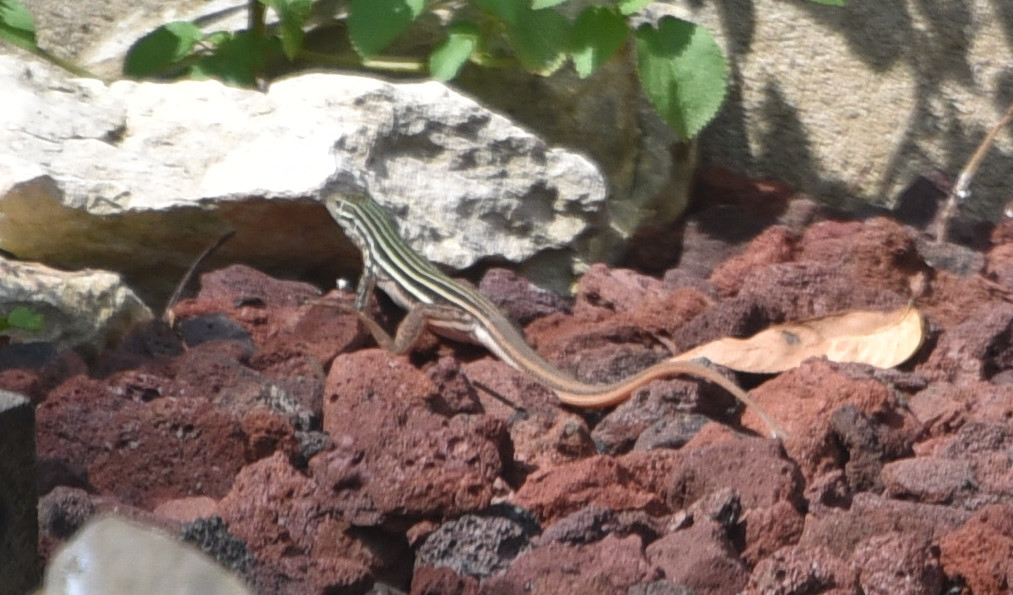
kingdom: Animalia
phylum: Chordata
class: Squamata
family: Teiidae
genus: Aspidoscelis
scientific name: Aspidoscelis gularis
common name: Eastern spotted whiptail
